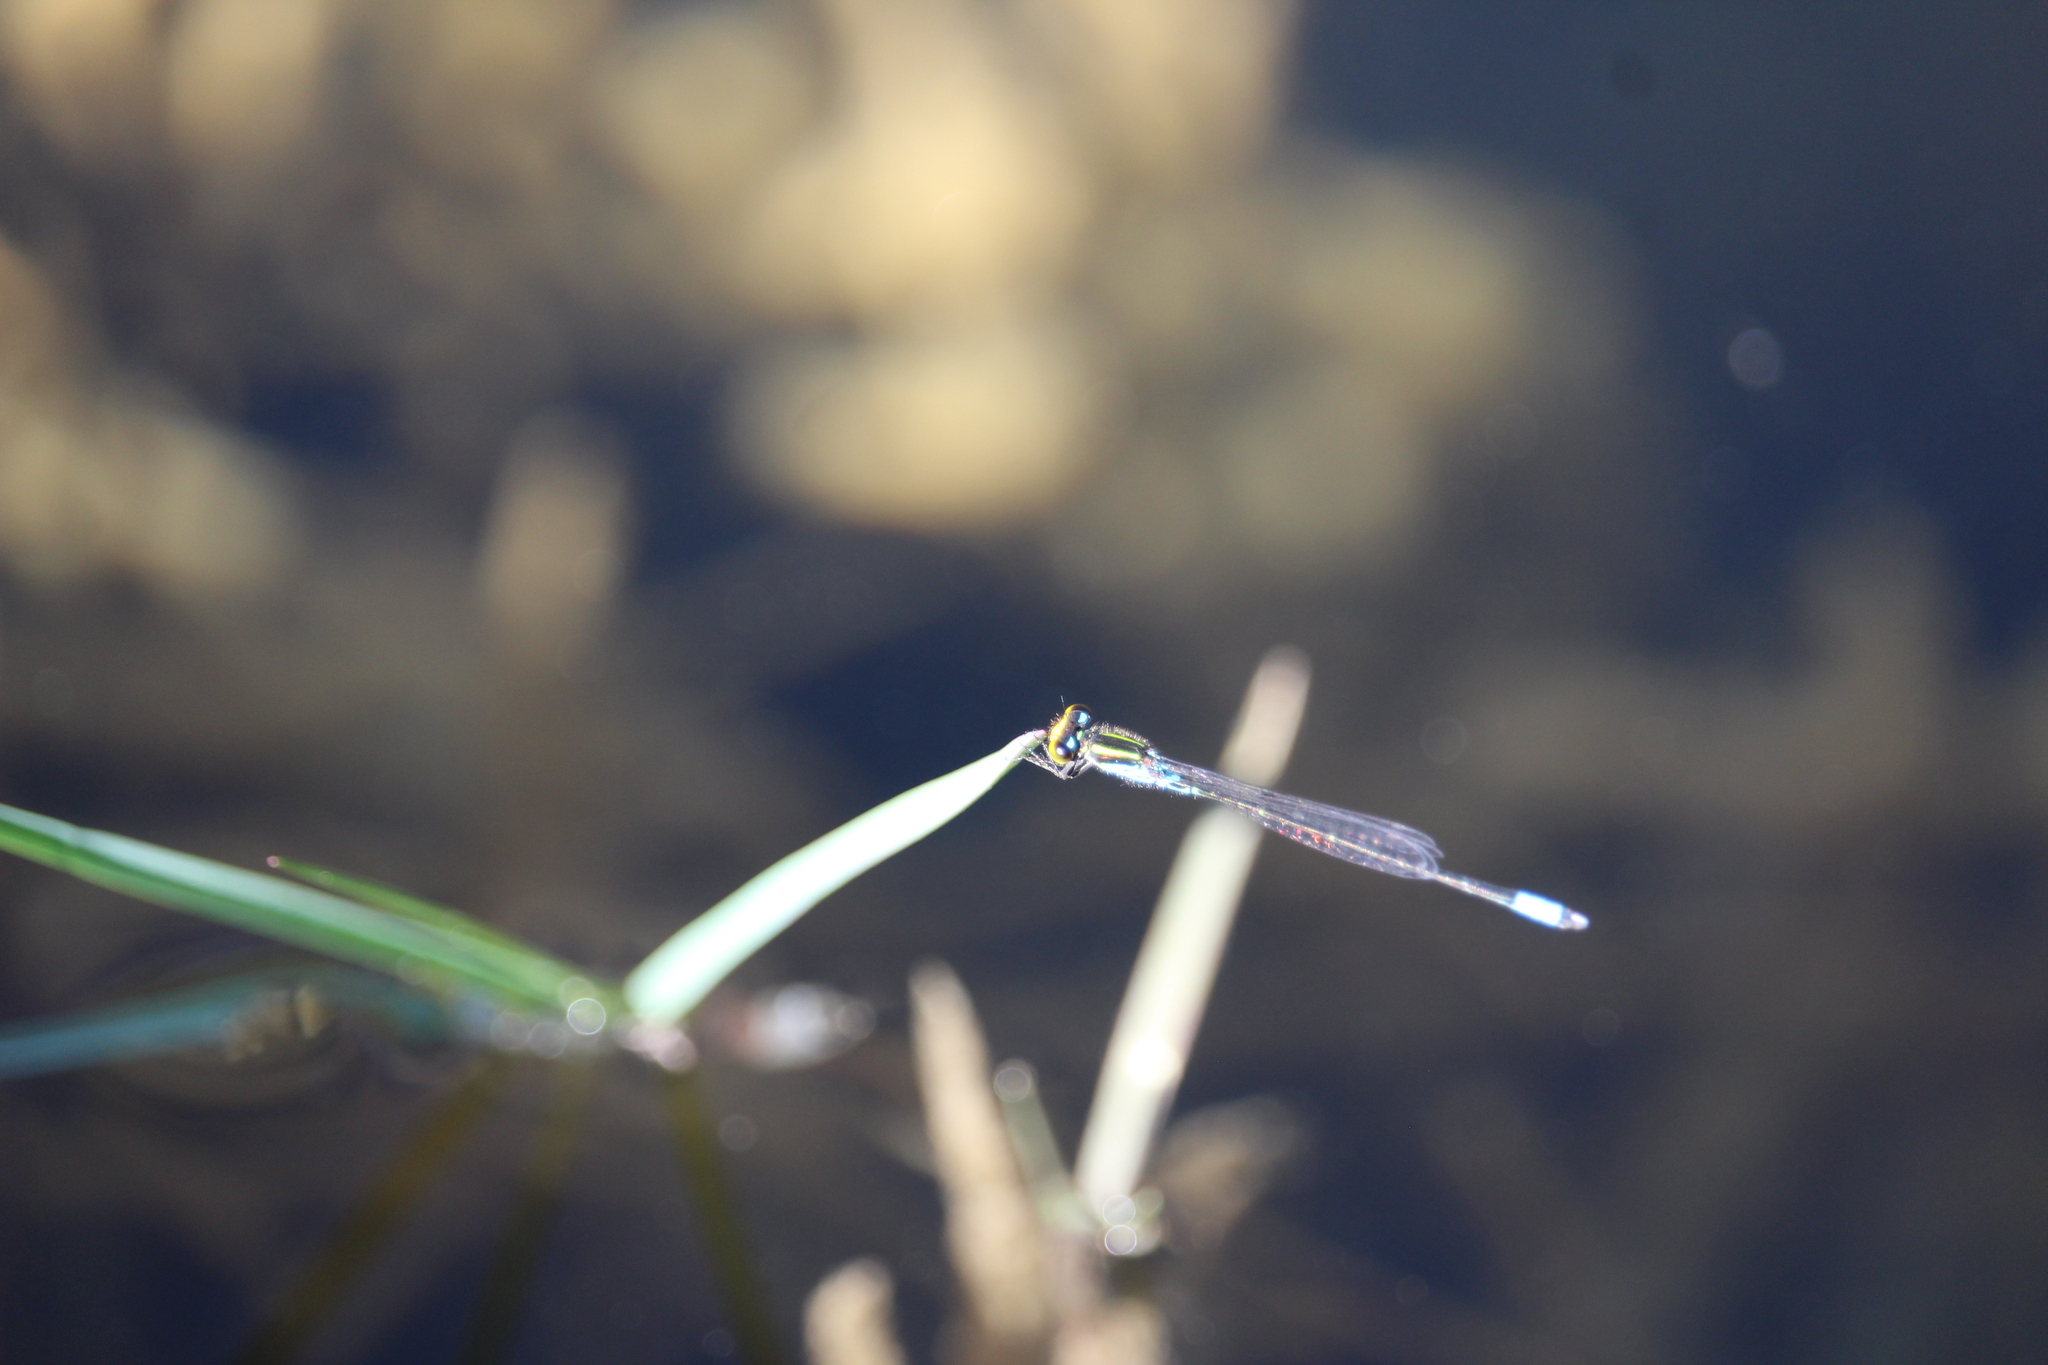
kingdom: Animalia
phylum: Arthropoda
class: Insecta
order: Odonata
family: Coenagrionidae
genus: Neoerythromma
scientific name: Neoerythromma cultellatum
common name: Caribbean yellowface
